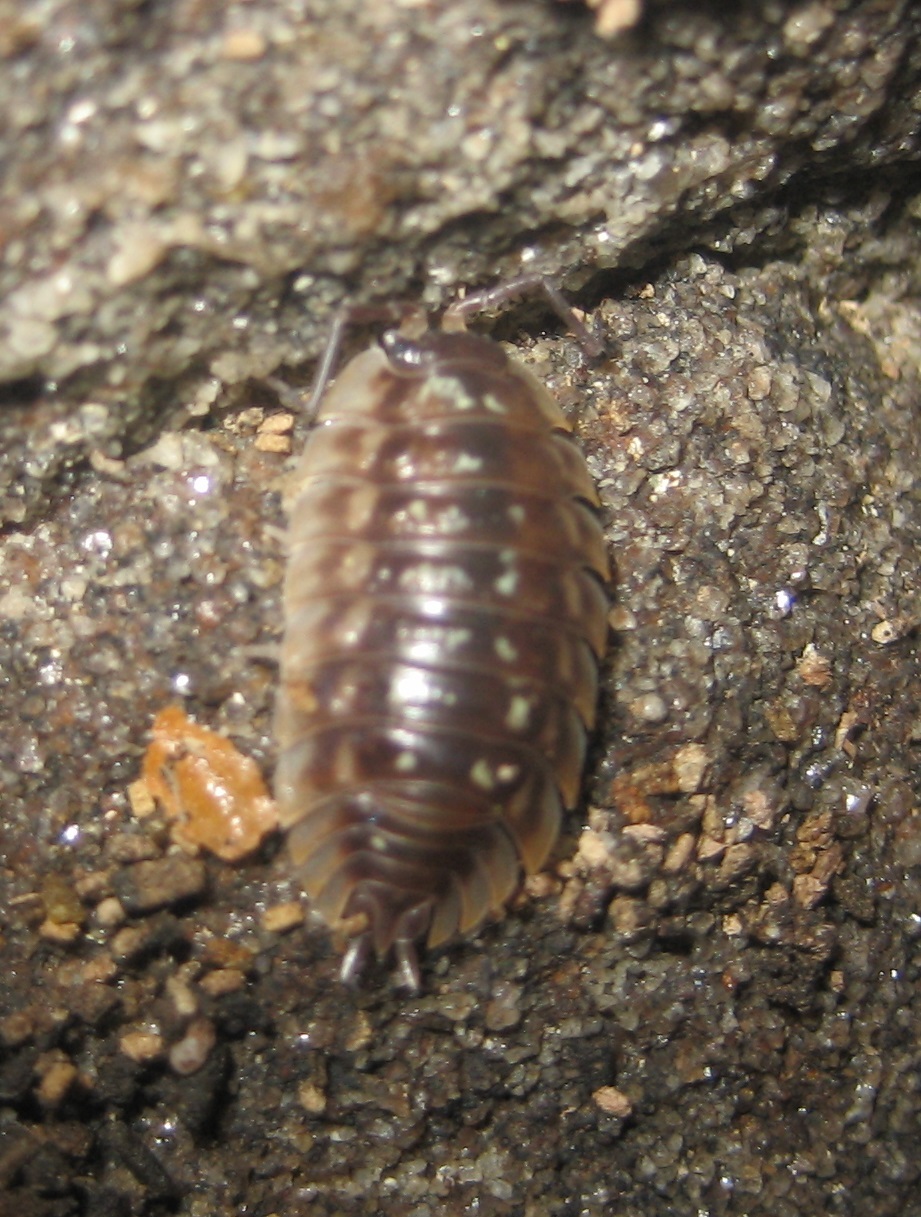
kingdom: Animalia
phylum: Arthropoda
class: Malacostraca
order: Isopoda
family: Oniscidae
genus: Oniscus
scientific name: Oniscus asellus
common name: Common shiny woodlouse
